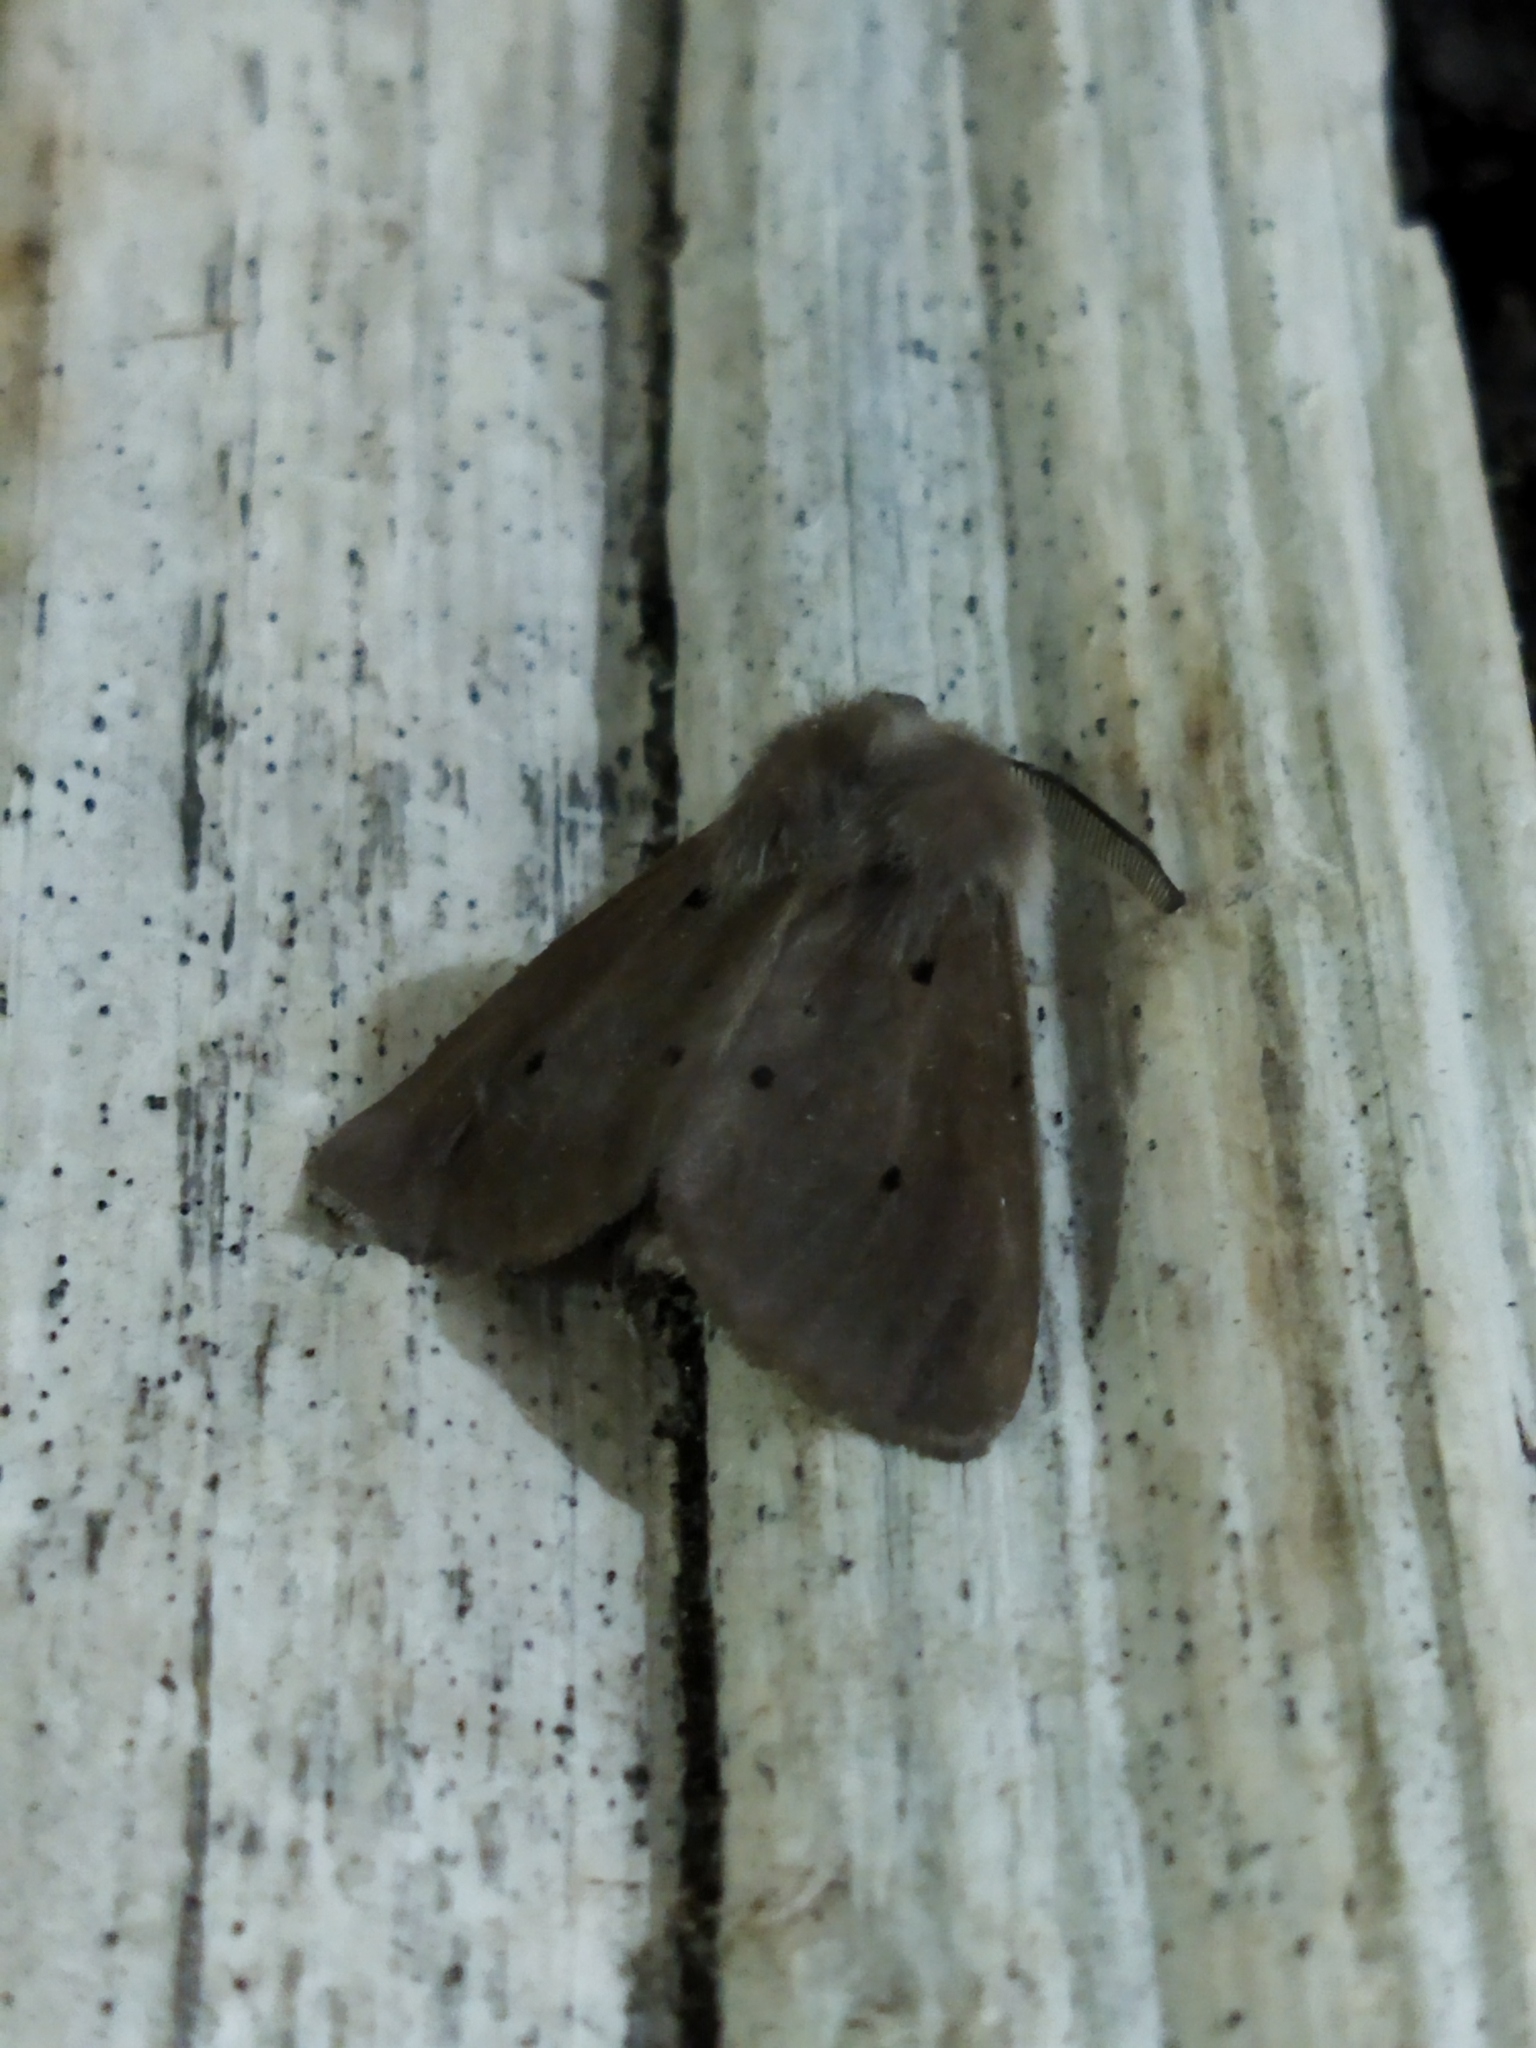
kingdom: Animalia
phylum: Arthropoda
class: Insecta
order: Lepidoptera
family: Erebidae
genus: Diaphora
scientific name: Diaphora mendica
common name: Muslin moth
